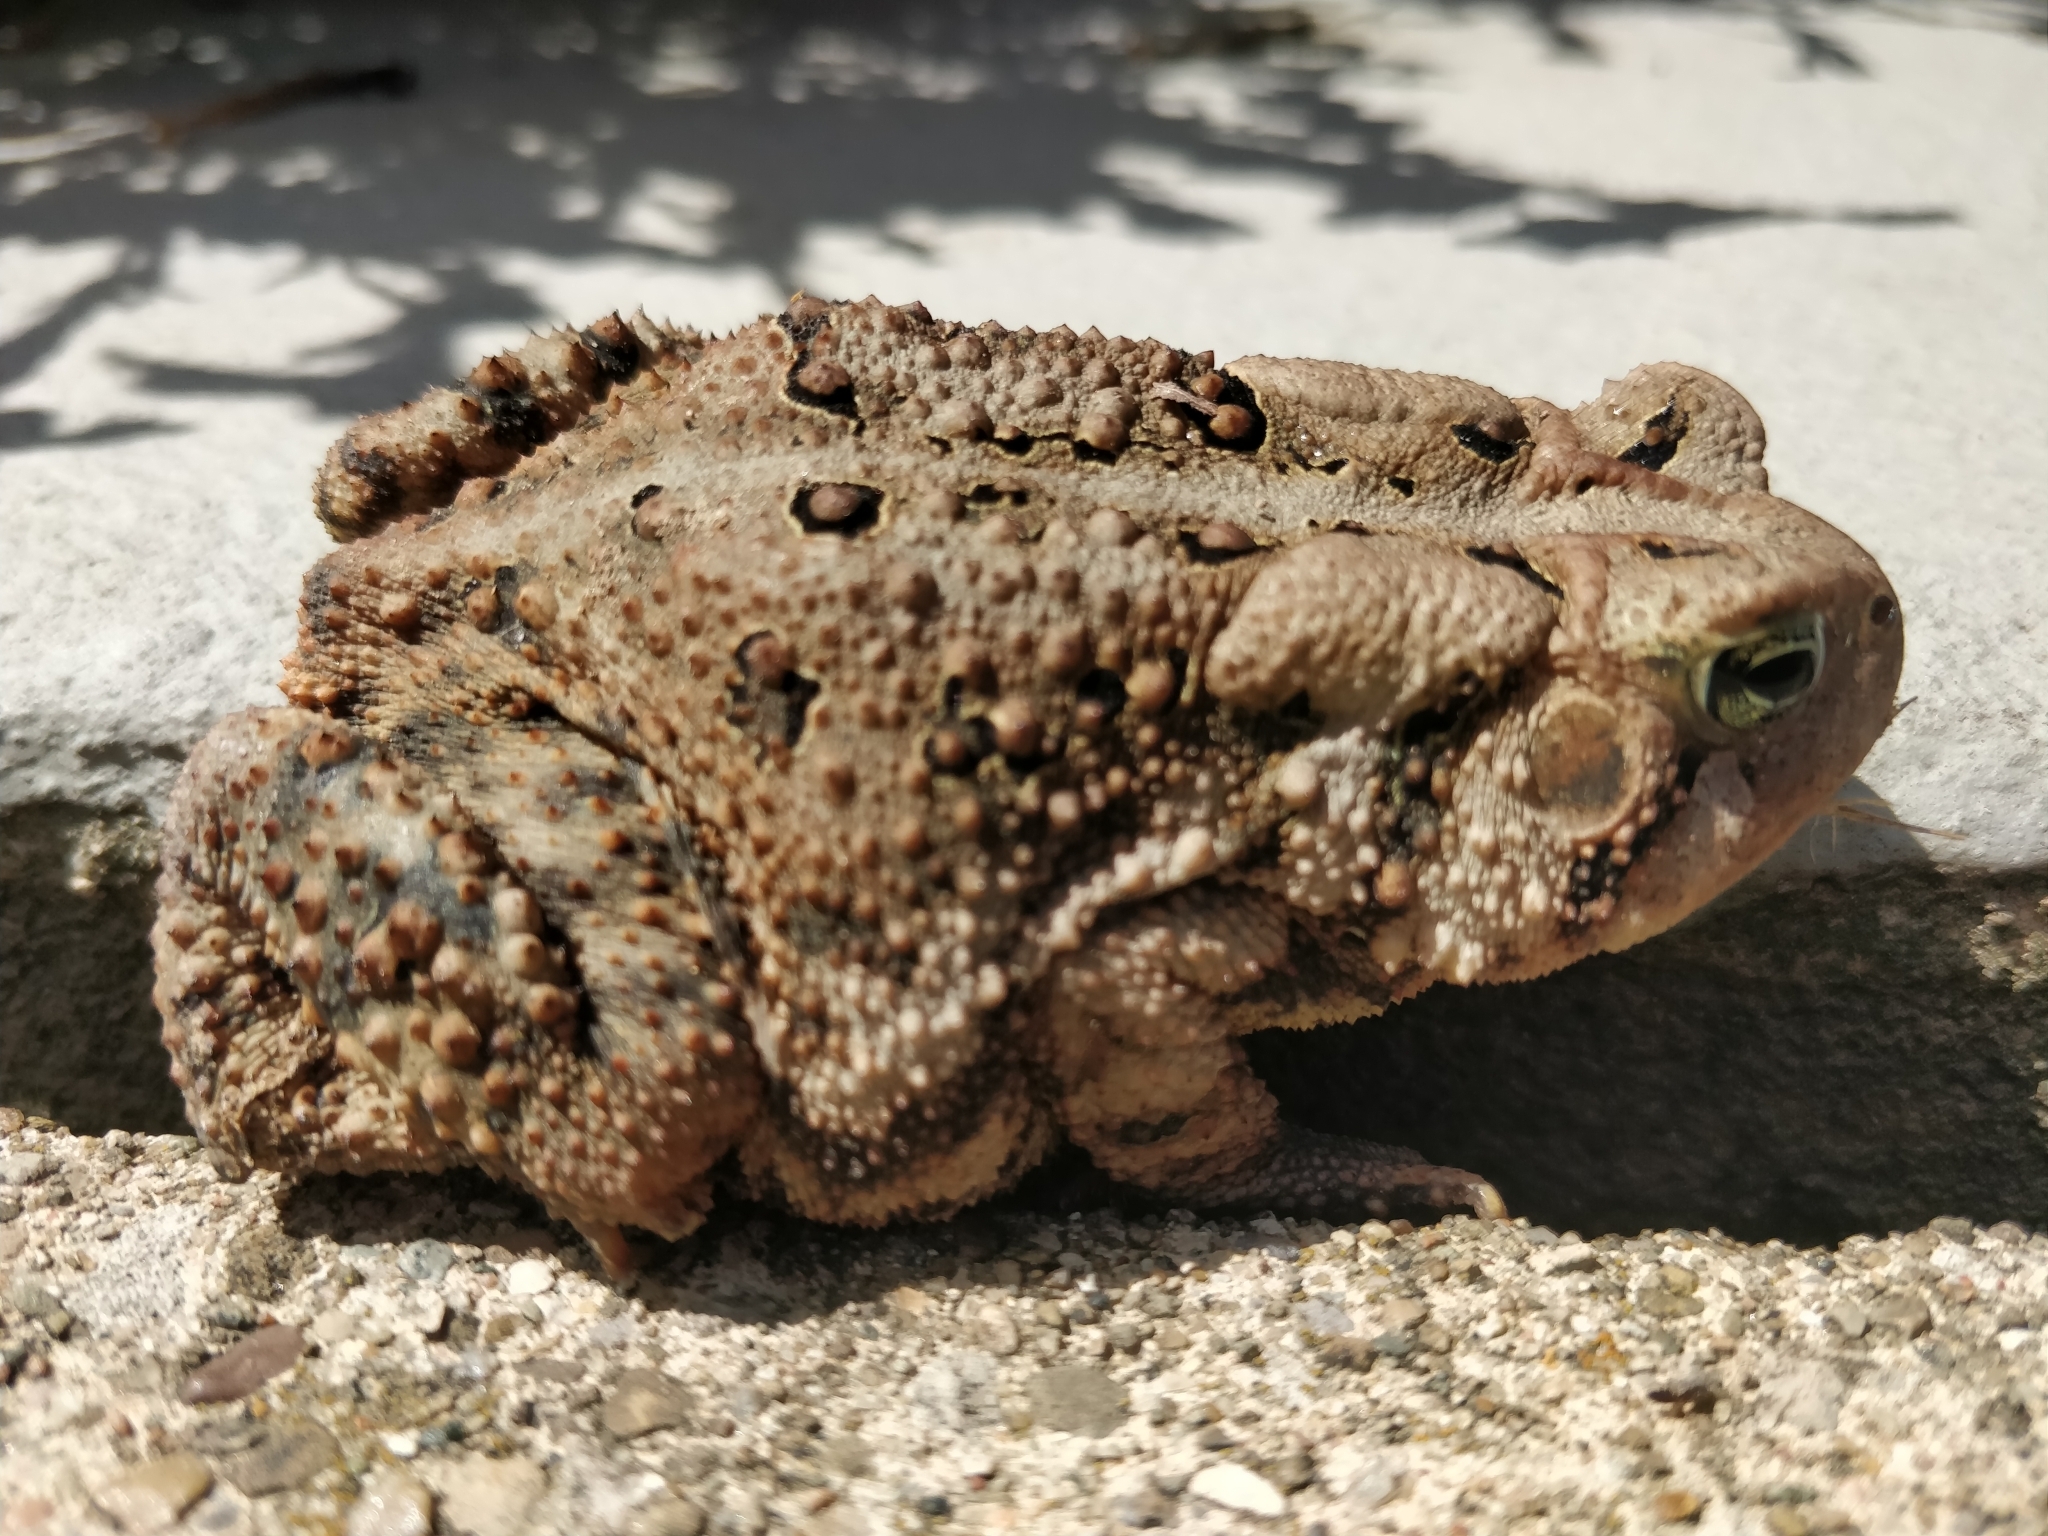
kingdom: Animalia
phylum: Chordata
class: Amphibia
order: Anura
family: Bufonidae
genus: Anaxyrus
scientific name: Anaxyrus americanus
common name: American toad
